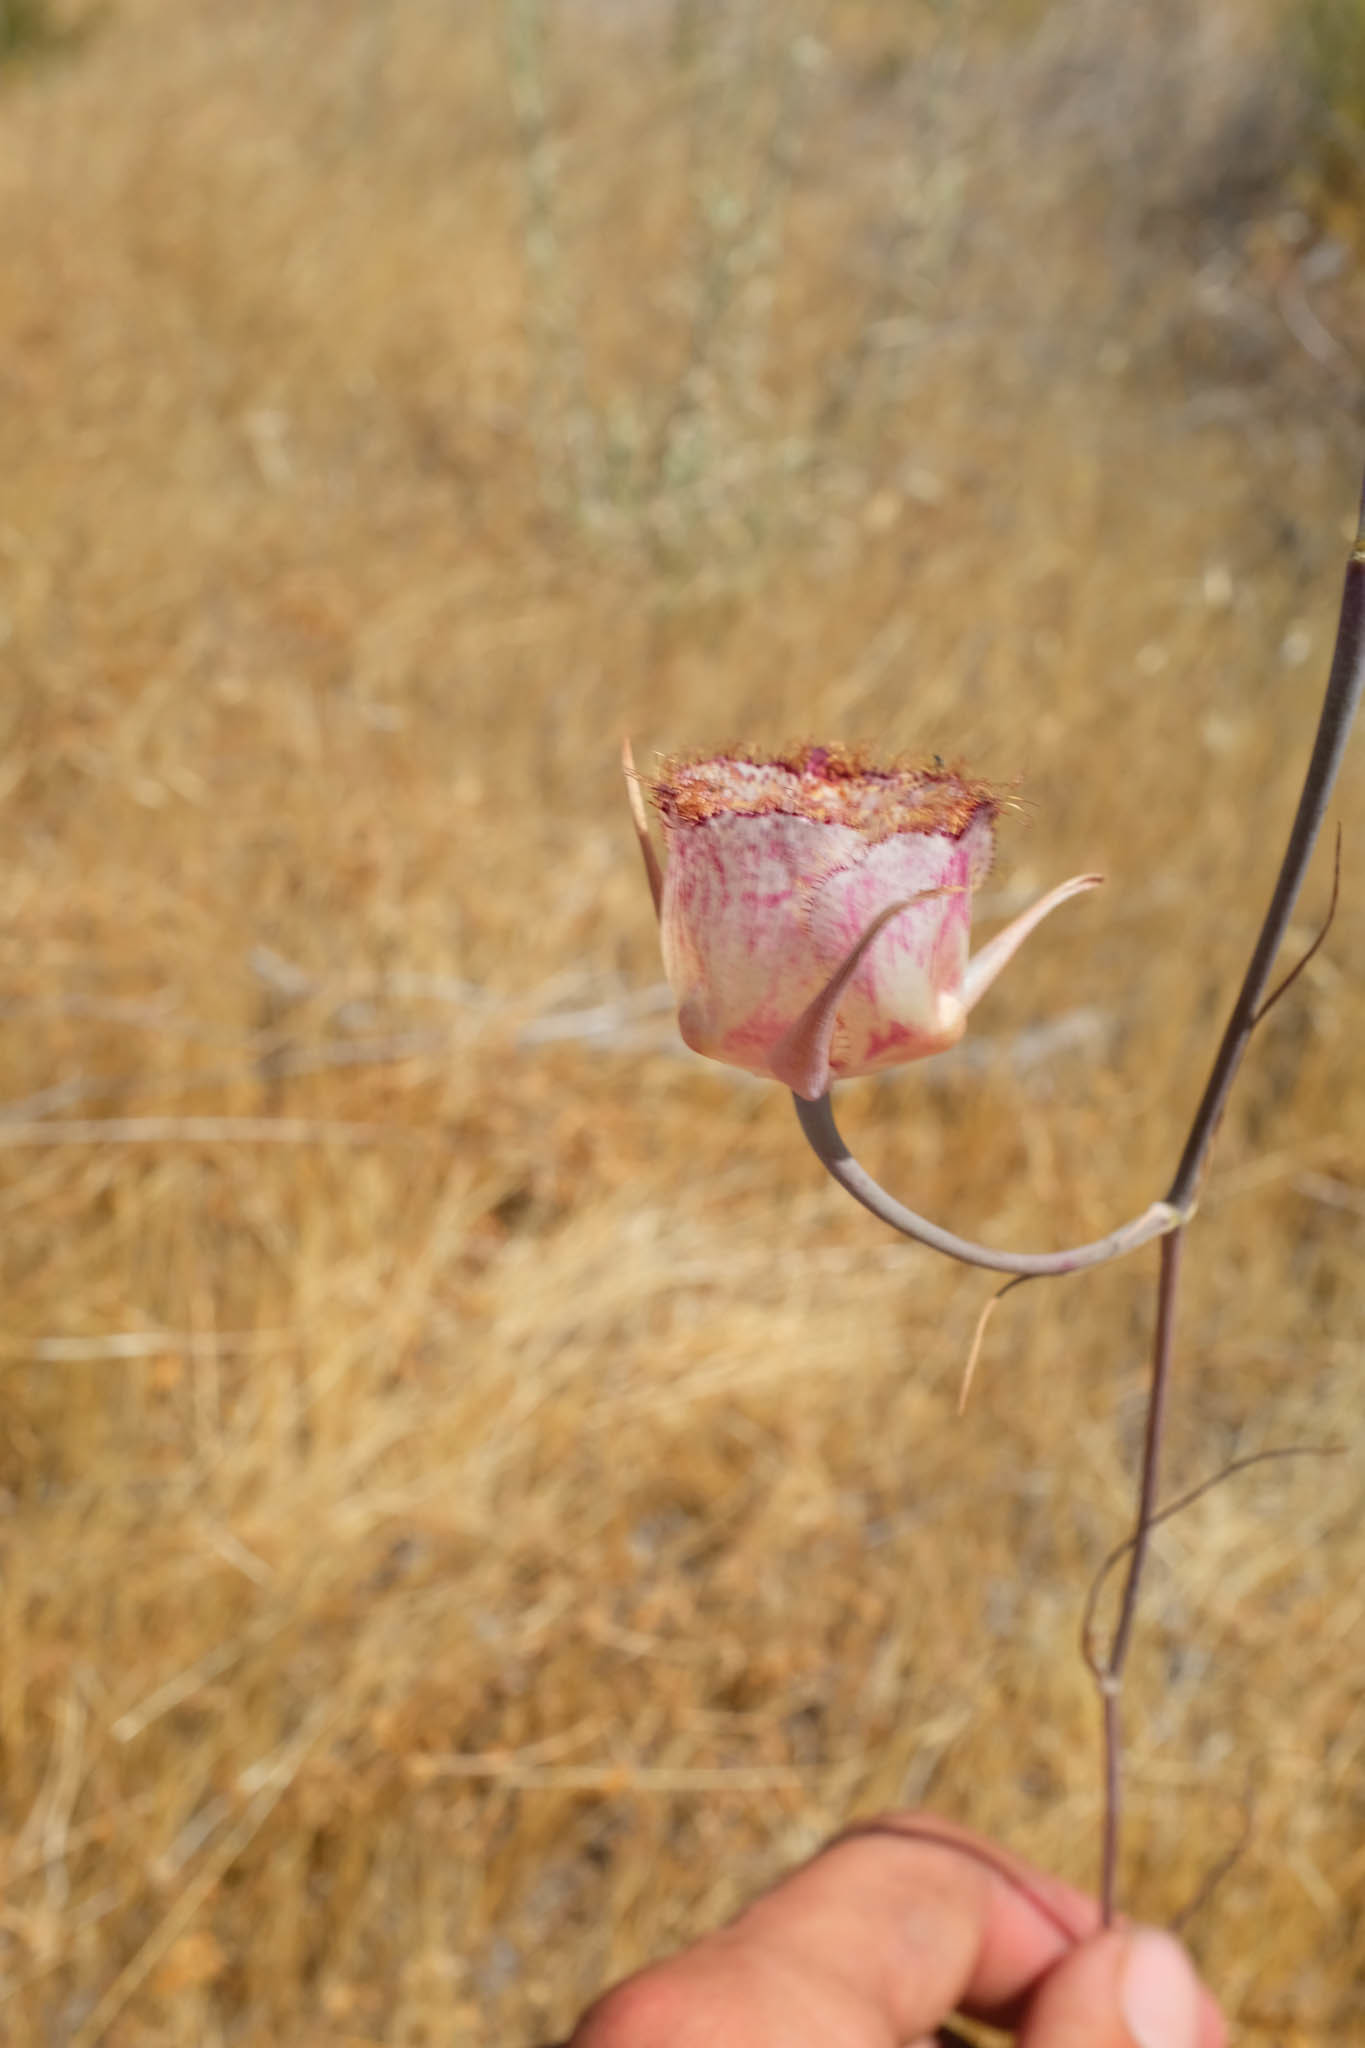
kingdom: Plantae
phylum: Tracheophyta
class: Liliopsida
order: Liliales
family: Liliaceae
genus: Calochortus
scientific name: Calochortus fimbriatus
